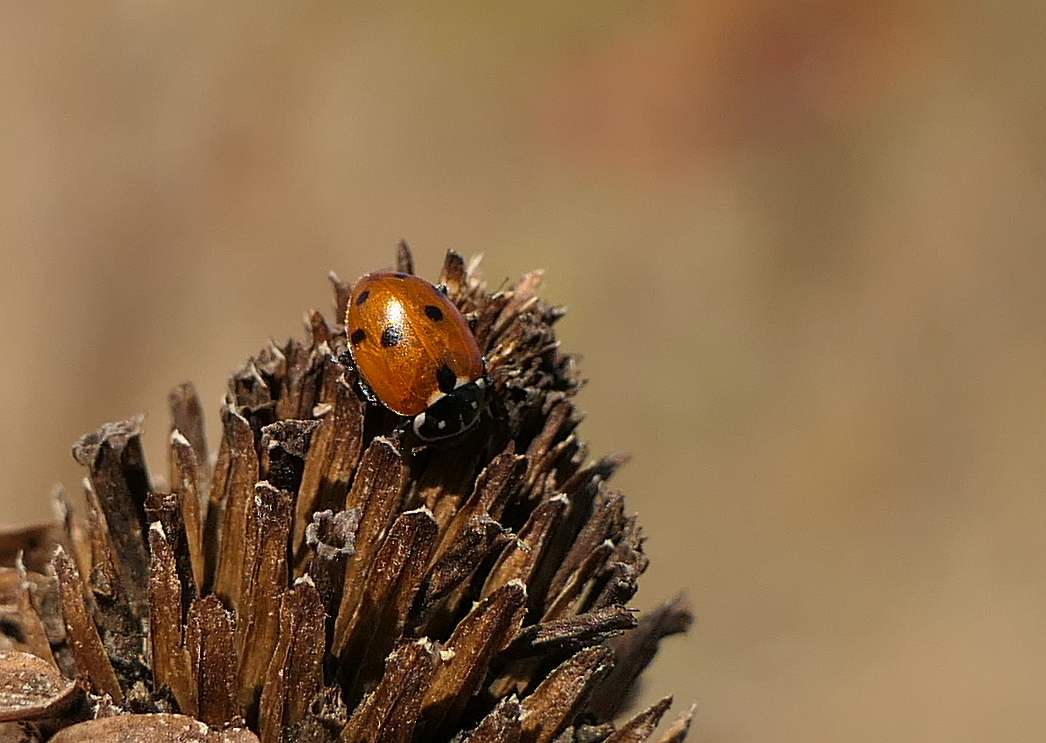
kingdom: Animalia
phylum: Arthropoda
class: Insecta
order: Coleoptera
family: Coccinellidae
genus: Hippodamia
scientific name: Hippodamia variegata
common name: Ladybird beetle
